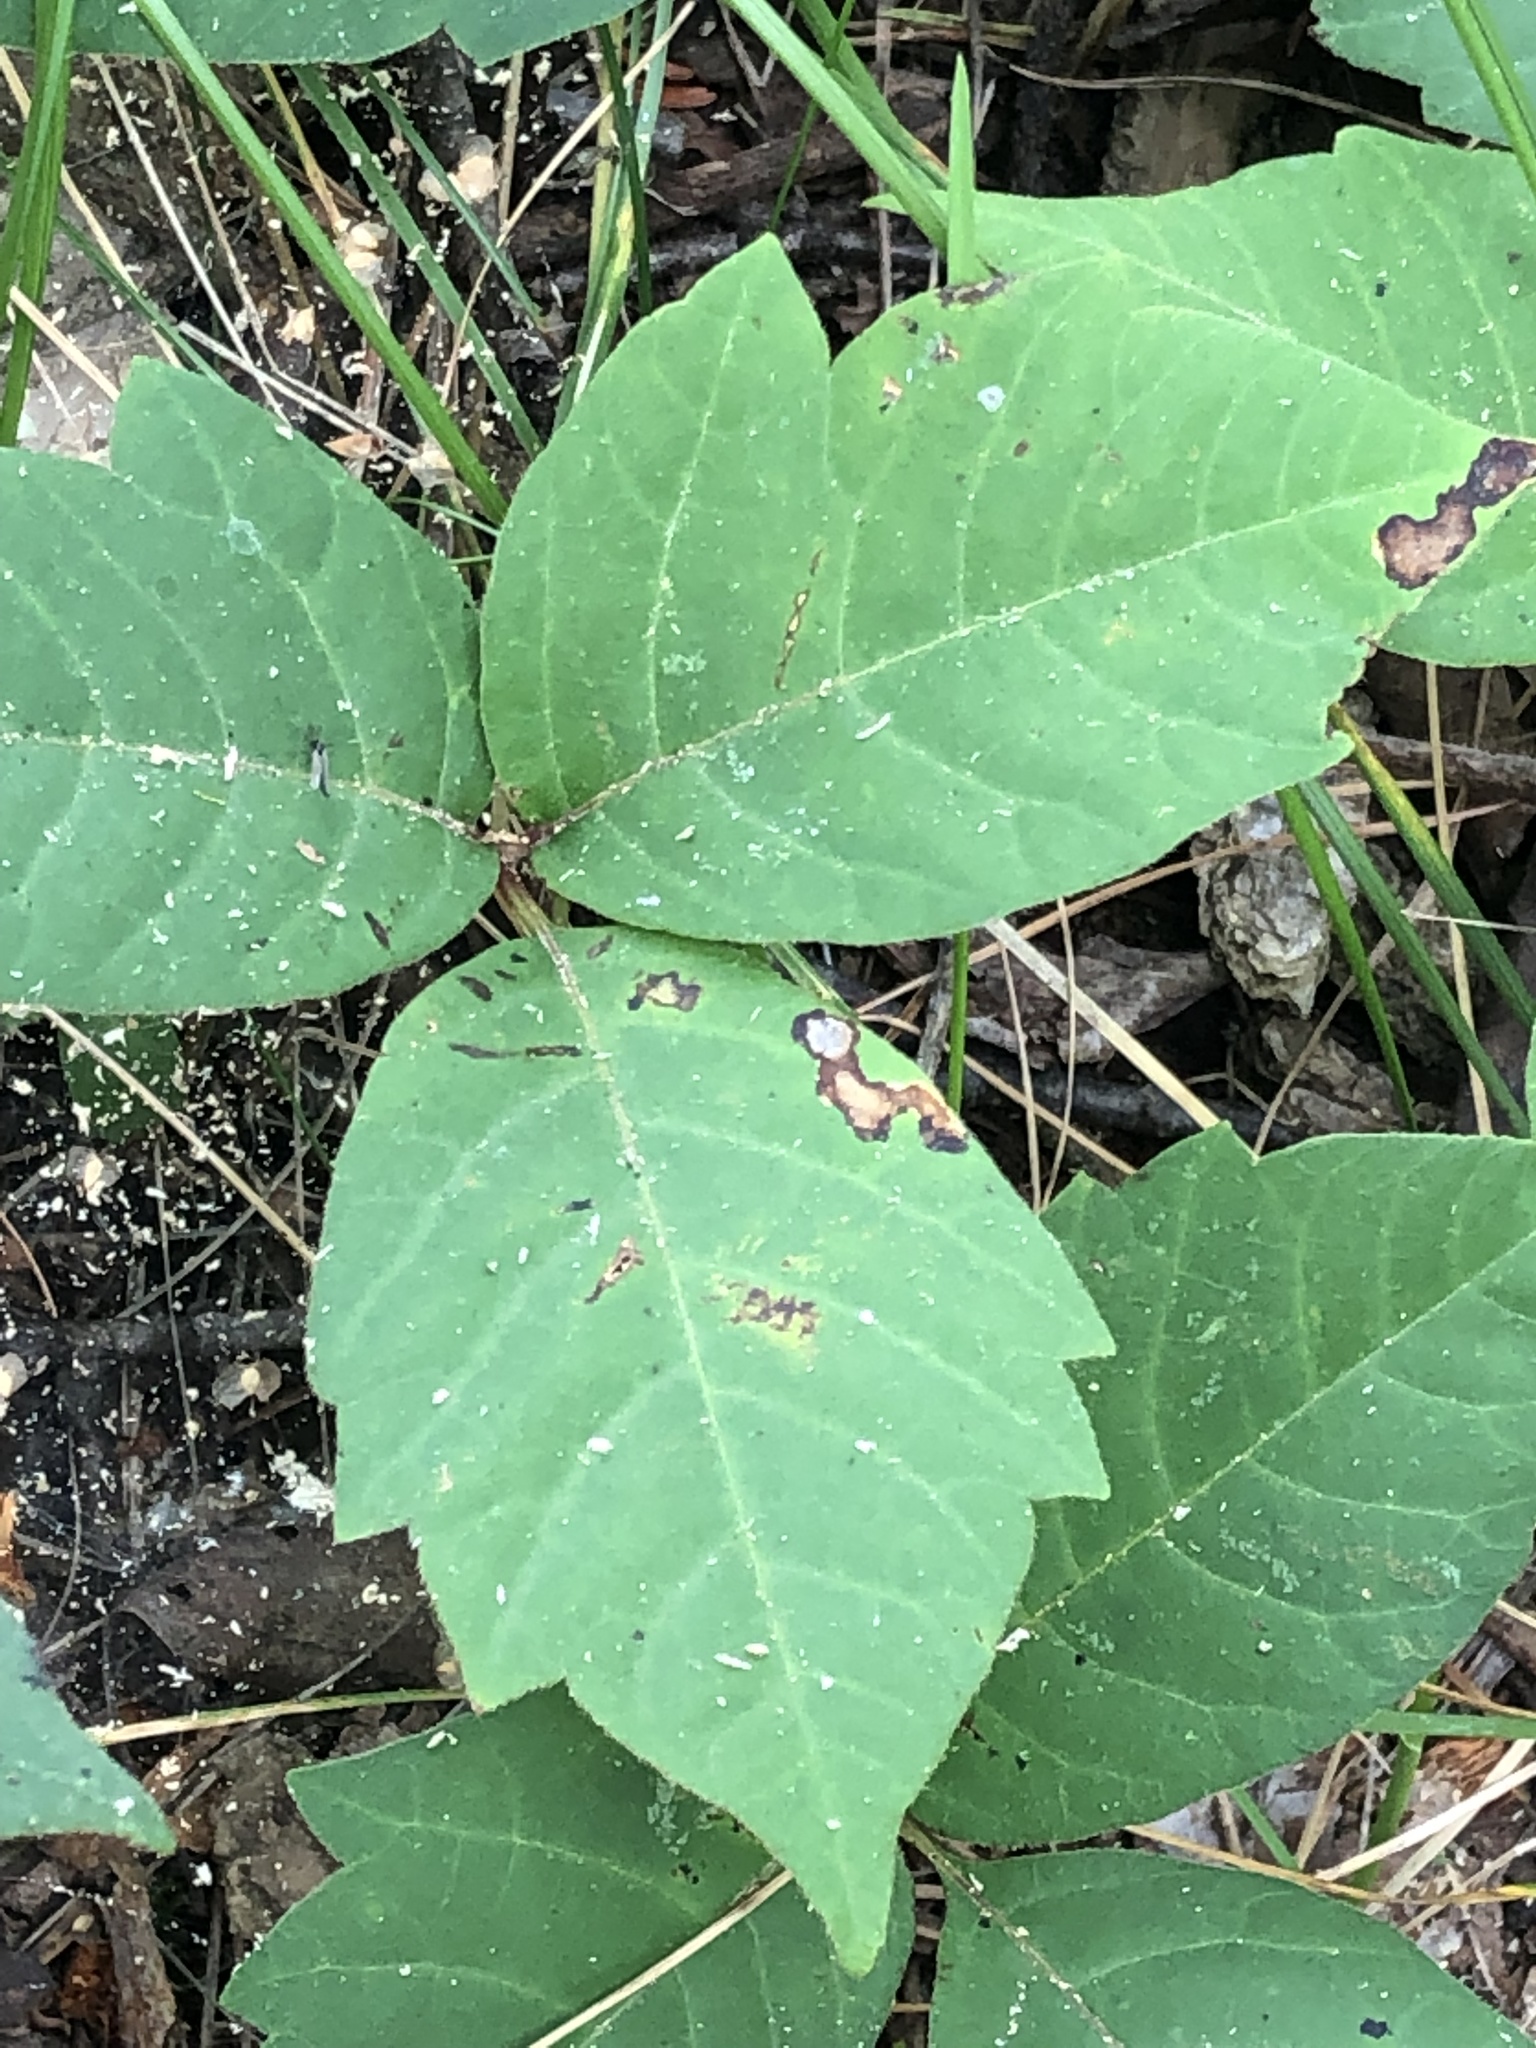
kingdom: Plantae
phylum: Tracheophyta
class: Magnoliopsida
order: Sapindales
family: Anacardiaceae
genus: Toxicodendron
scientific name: Toxicodendron rydbergii
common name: Rydberg's poison-ivy
